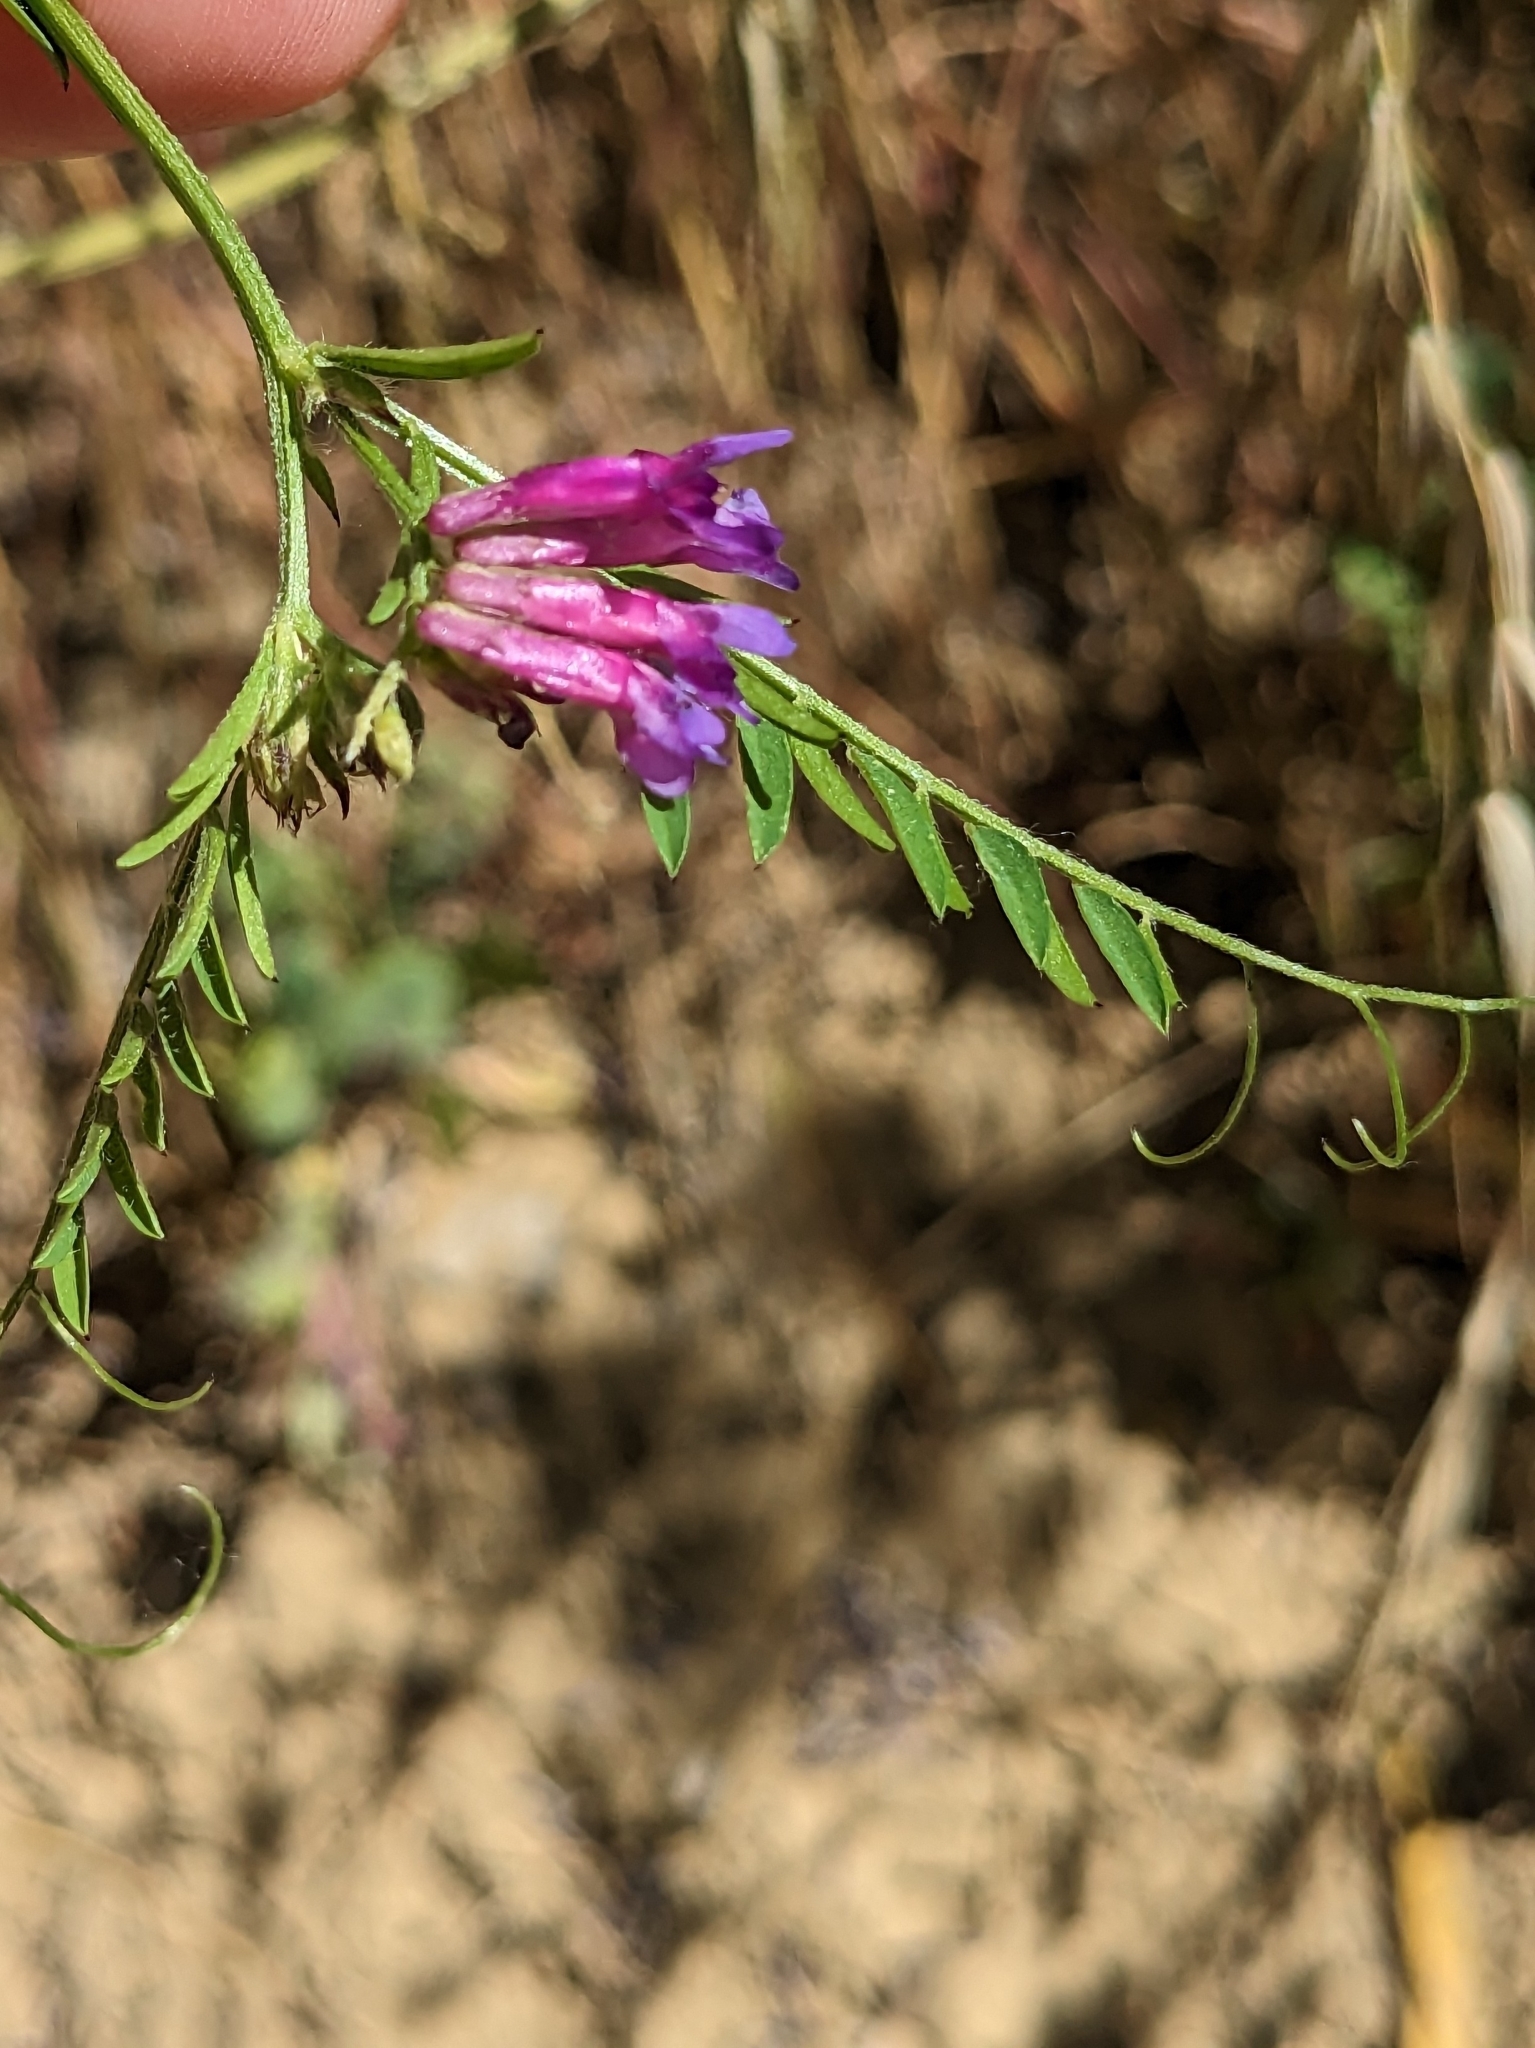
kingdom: Plantae
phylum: Tracheophyta
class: Magnoliopsida
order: Fabales
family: Fabaceae
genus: Vicia
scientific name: Vicia villosa
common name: Fodder vetch
